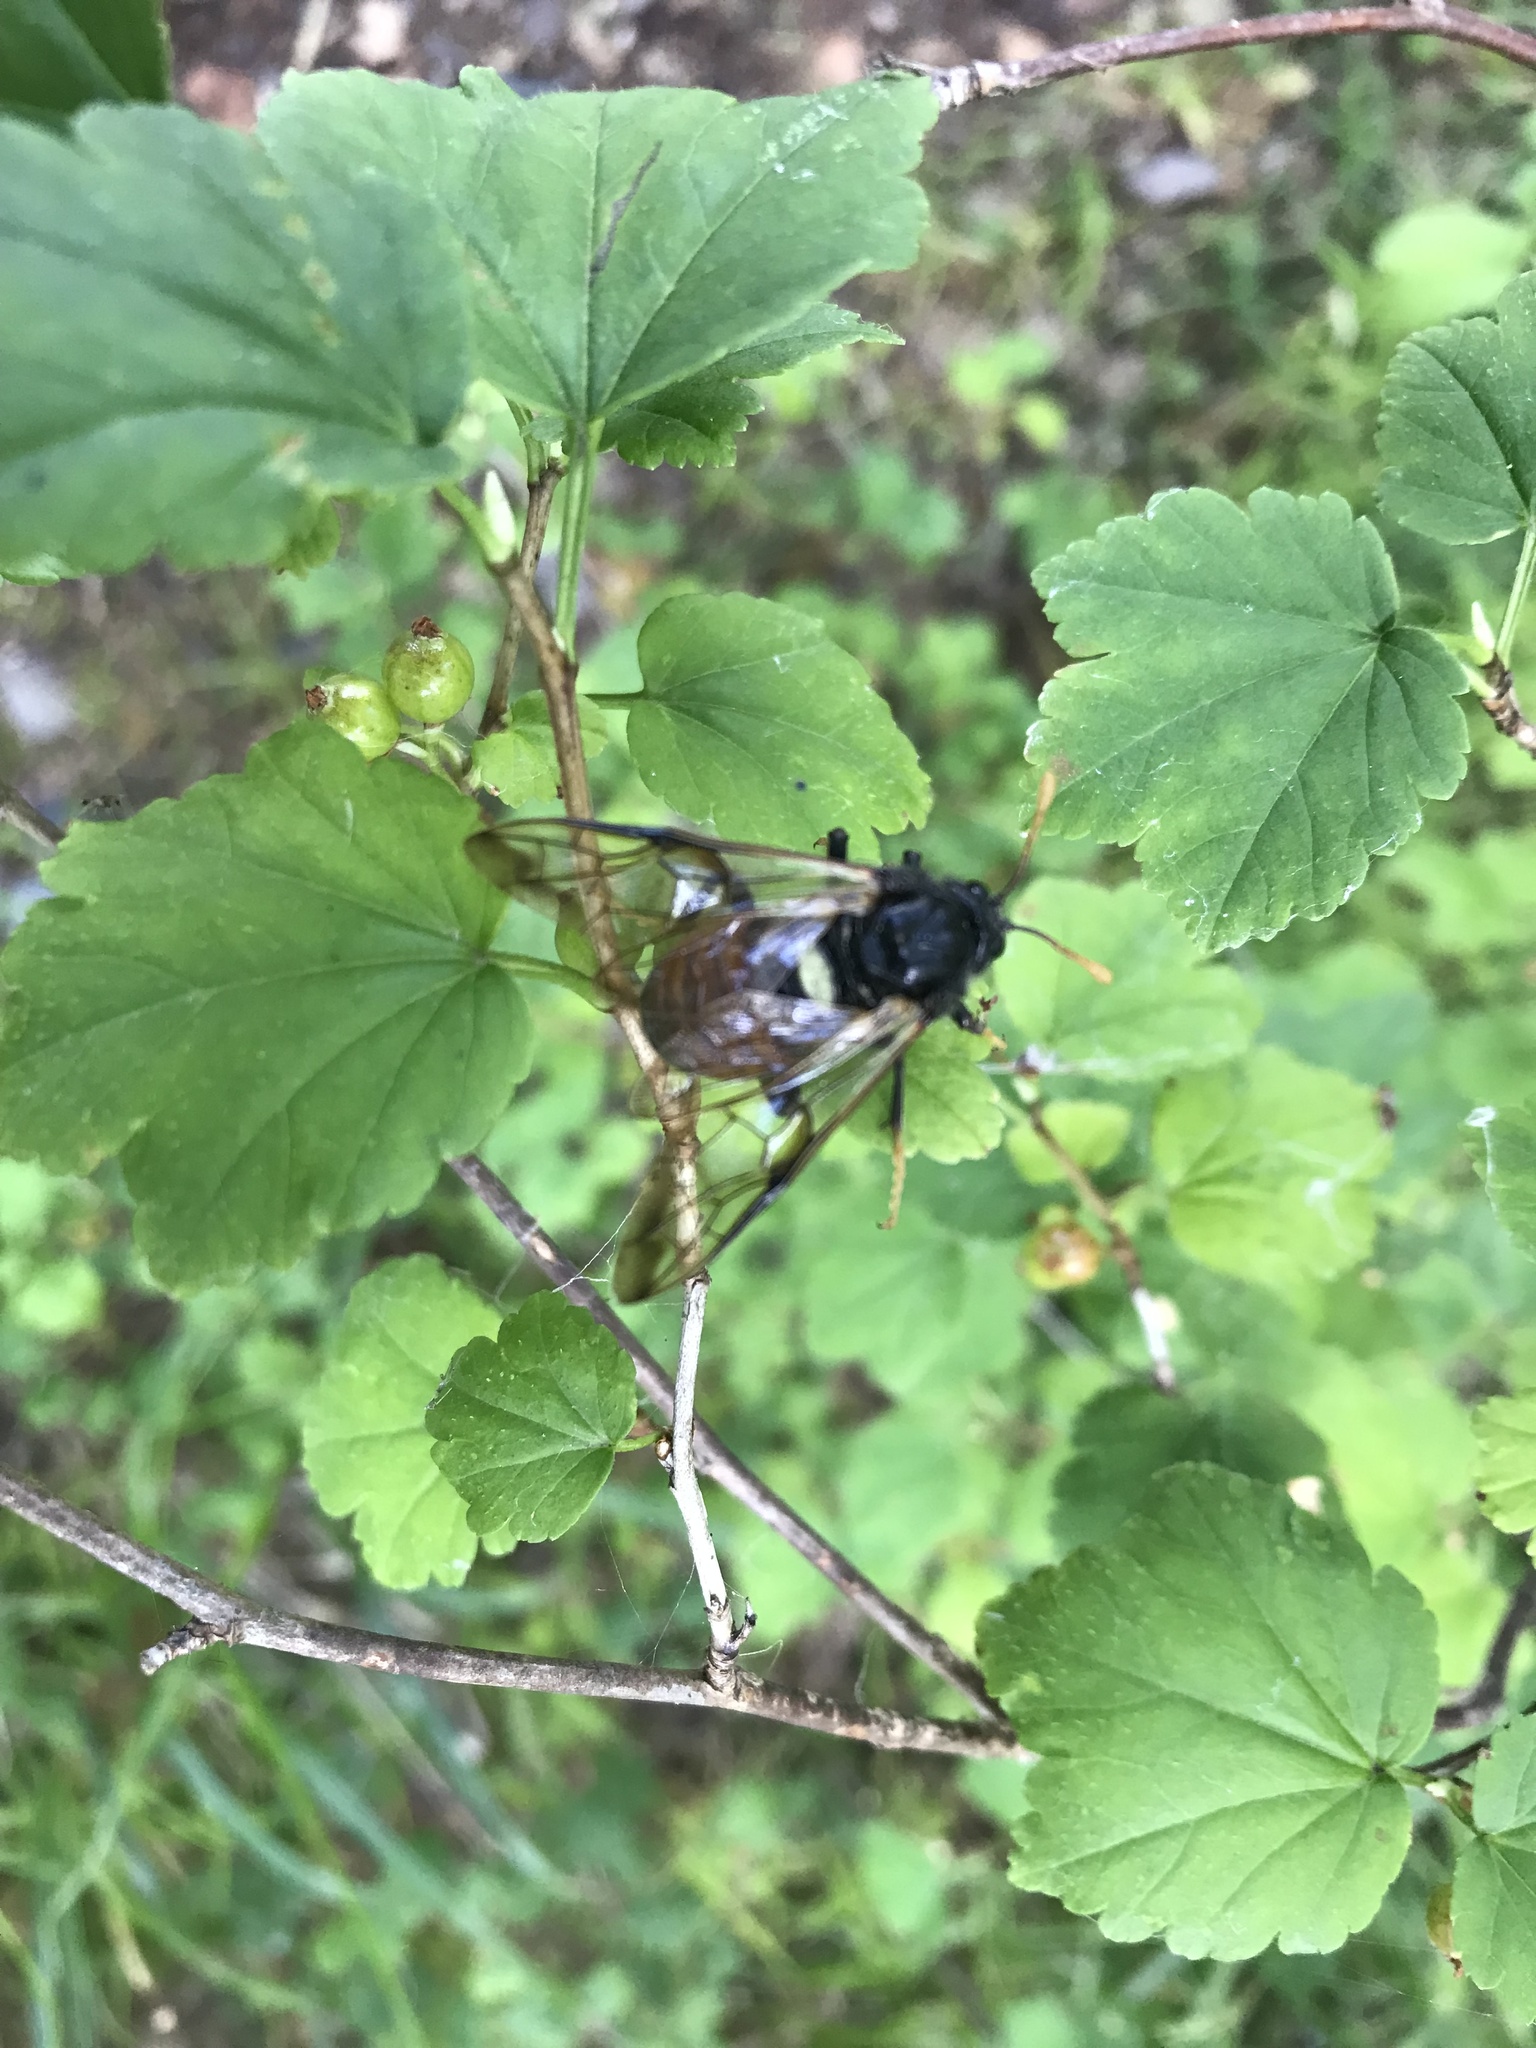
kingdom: Animalia
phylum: Arthropoda
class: Insecta
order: Hymenoptera
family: Cimbicidae
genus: Cimbex
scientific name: Cimbex femoratus
